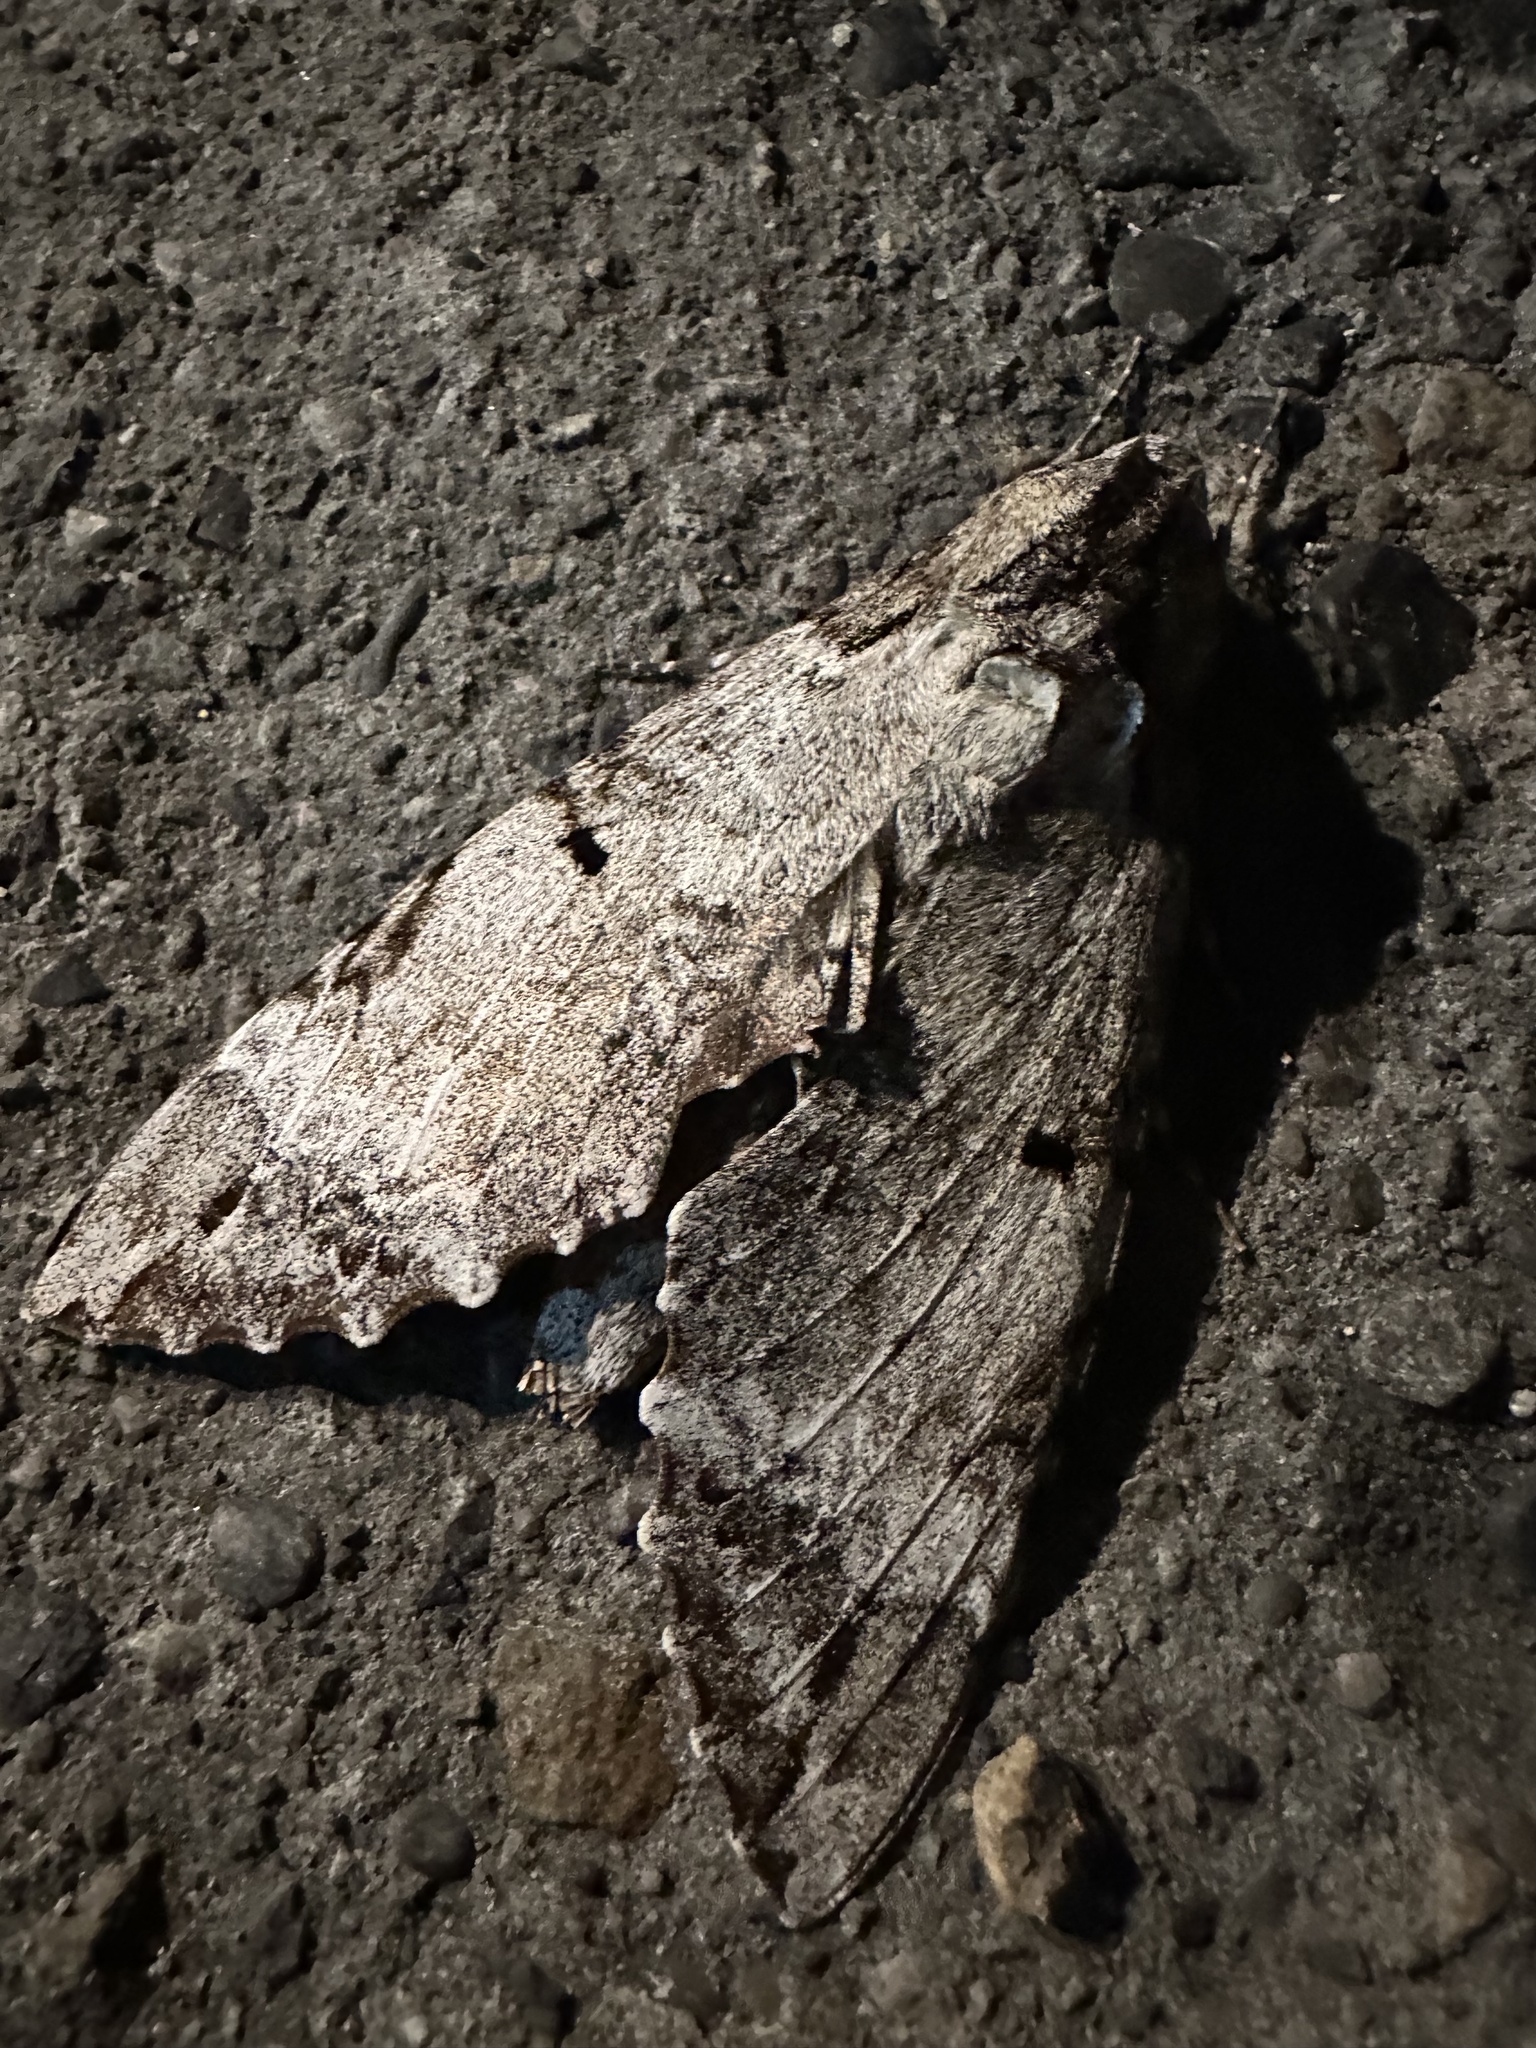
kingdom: Animalia
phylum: Arthropoda
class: Insecta
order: Lepidoptera
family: Sphingidae
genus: Pseudosphinx
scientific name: Pseudosphinx tetrio
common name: Tetrio sphinx
